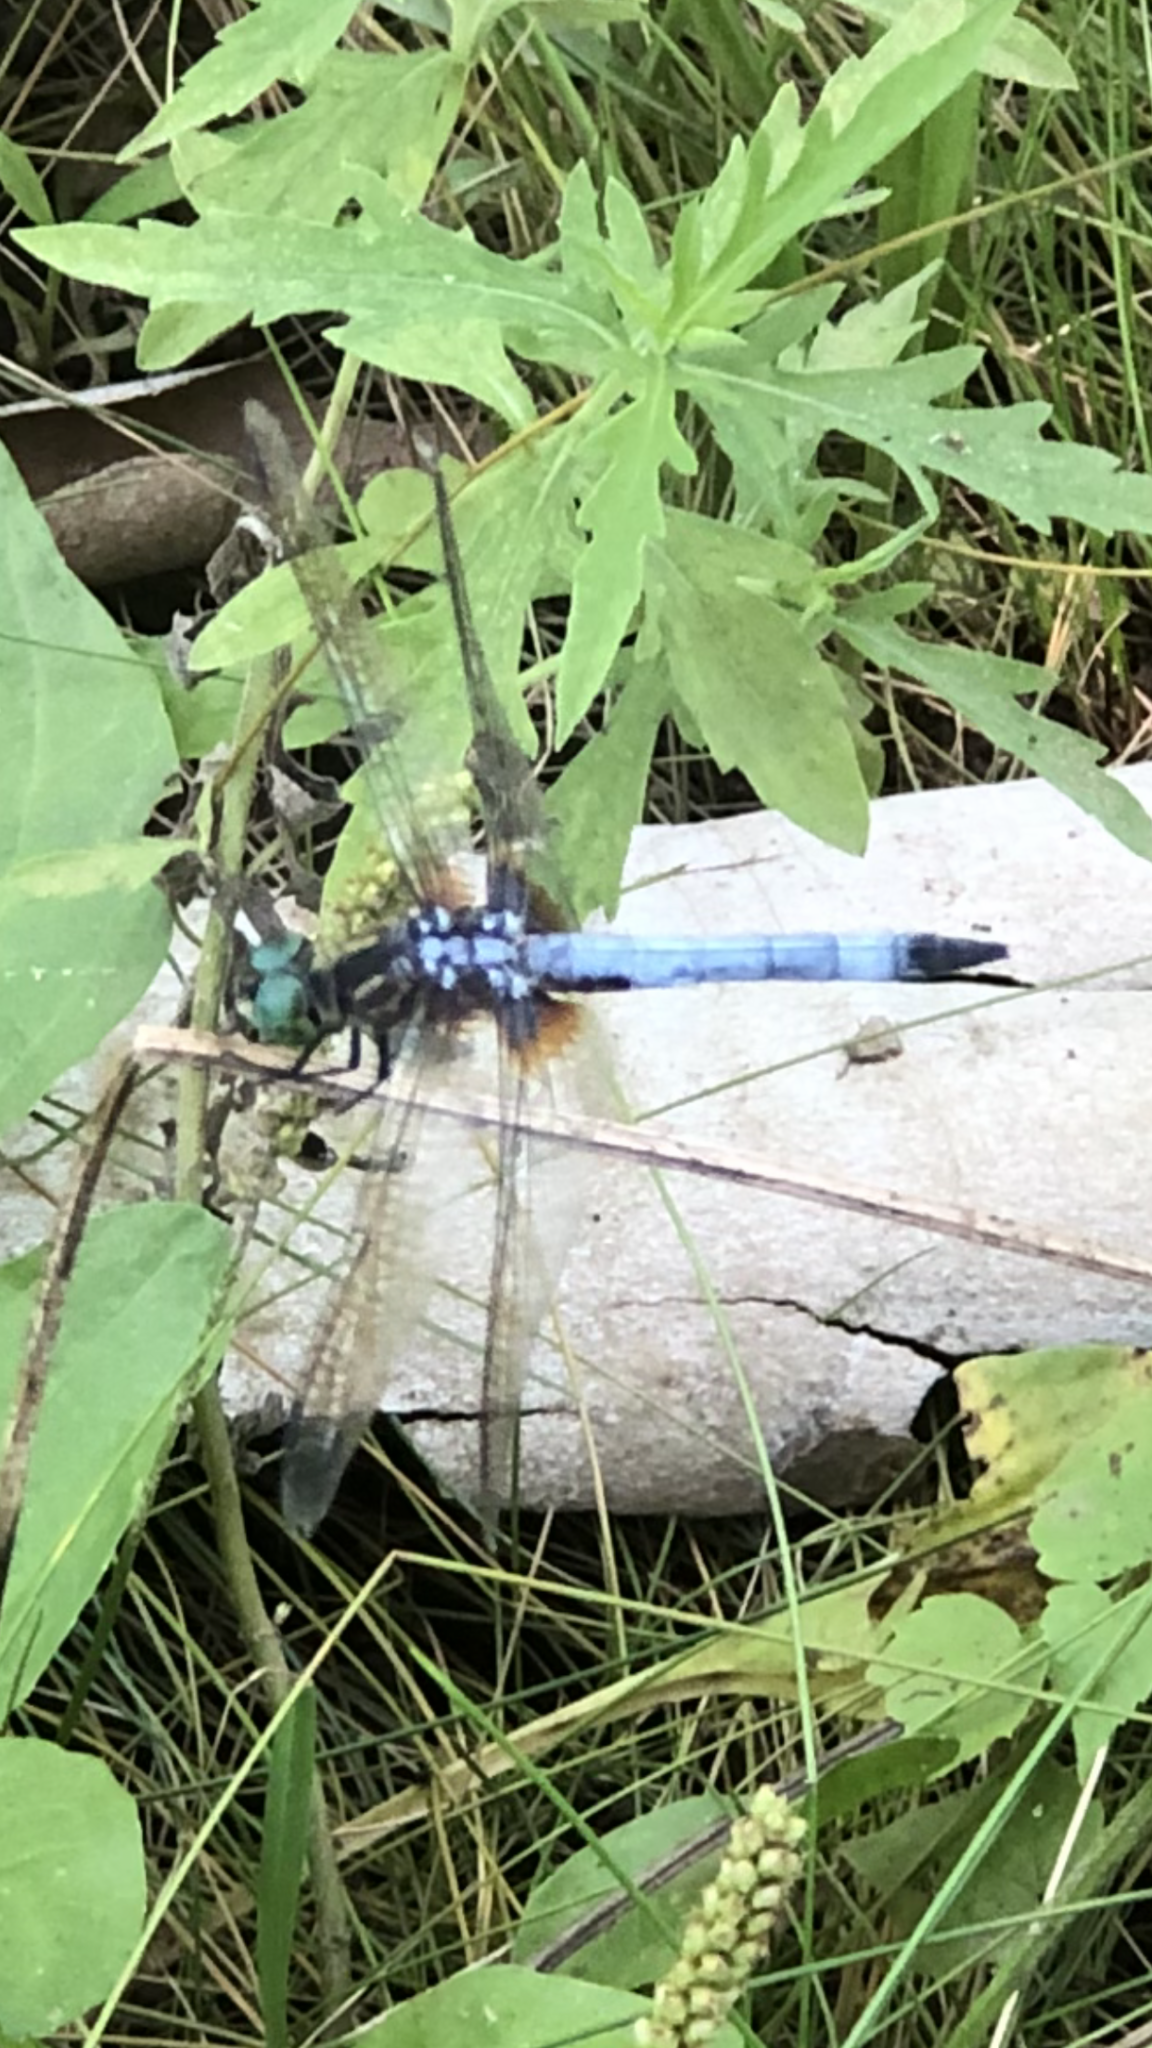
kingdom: Animalia
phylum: Arthropoda
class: Insecta
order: Odonata
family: Libellulidae
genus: Pachydiplax
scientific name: Pachydiplax longipennis
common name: Blue dasher
